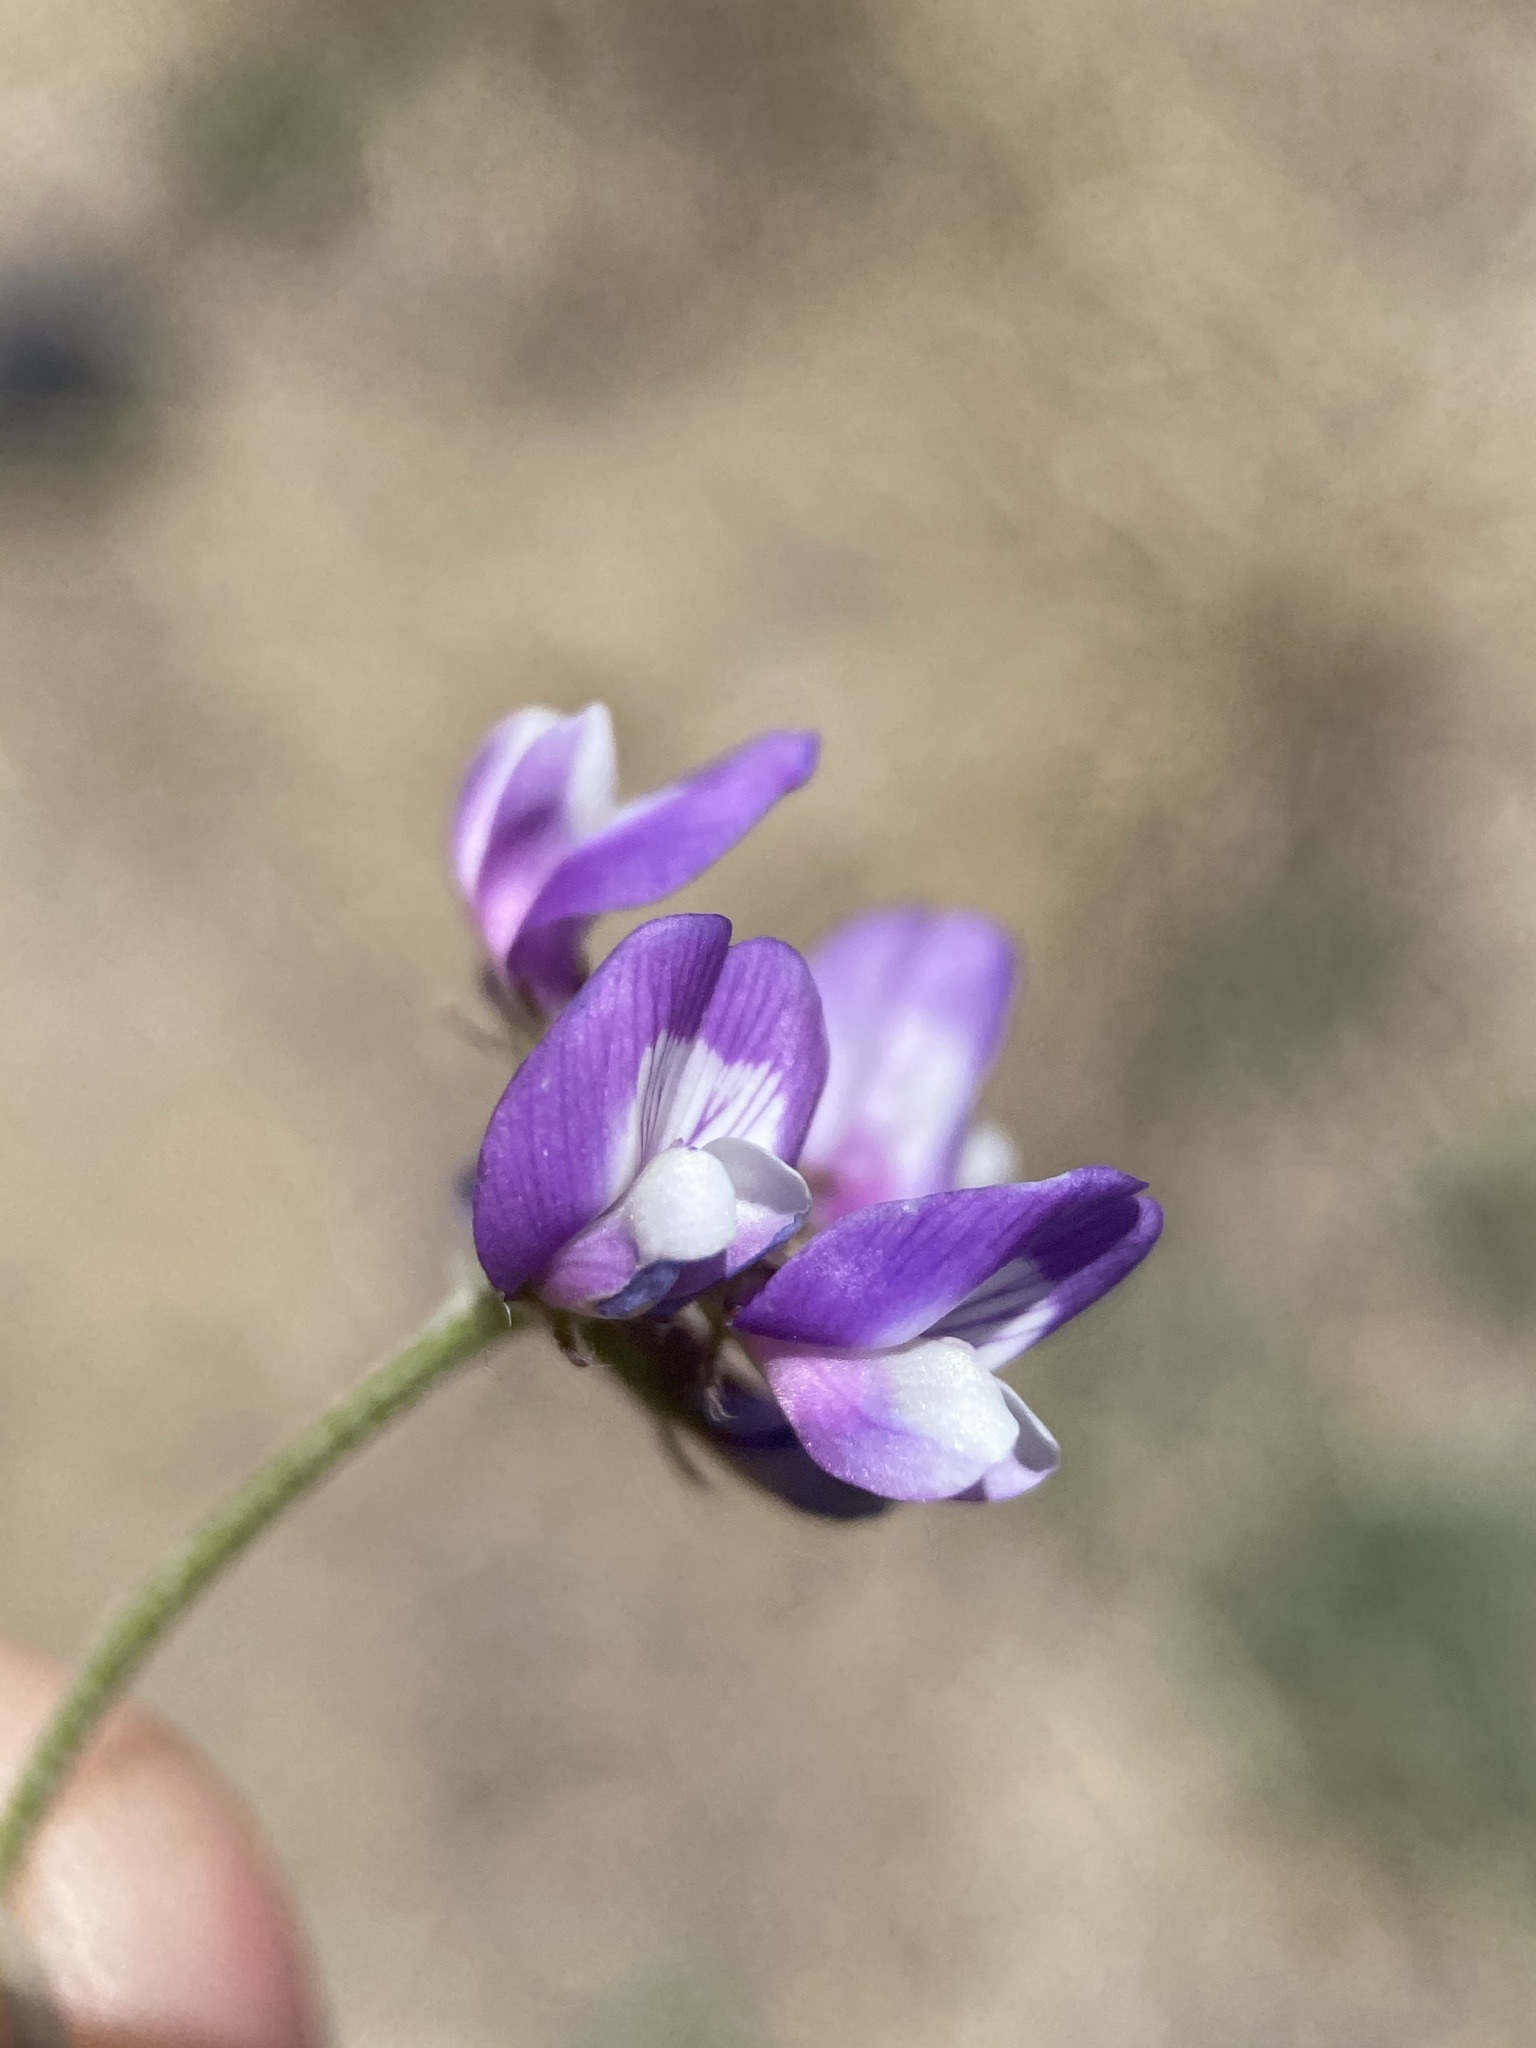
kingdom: Plantae
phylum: Tracheophyta
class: Magnoliopsida
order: Fabales
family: Fabaceae
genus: Astragalus
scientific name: Astragalus nuttallianus
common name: Smallflowered milkvetch
